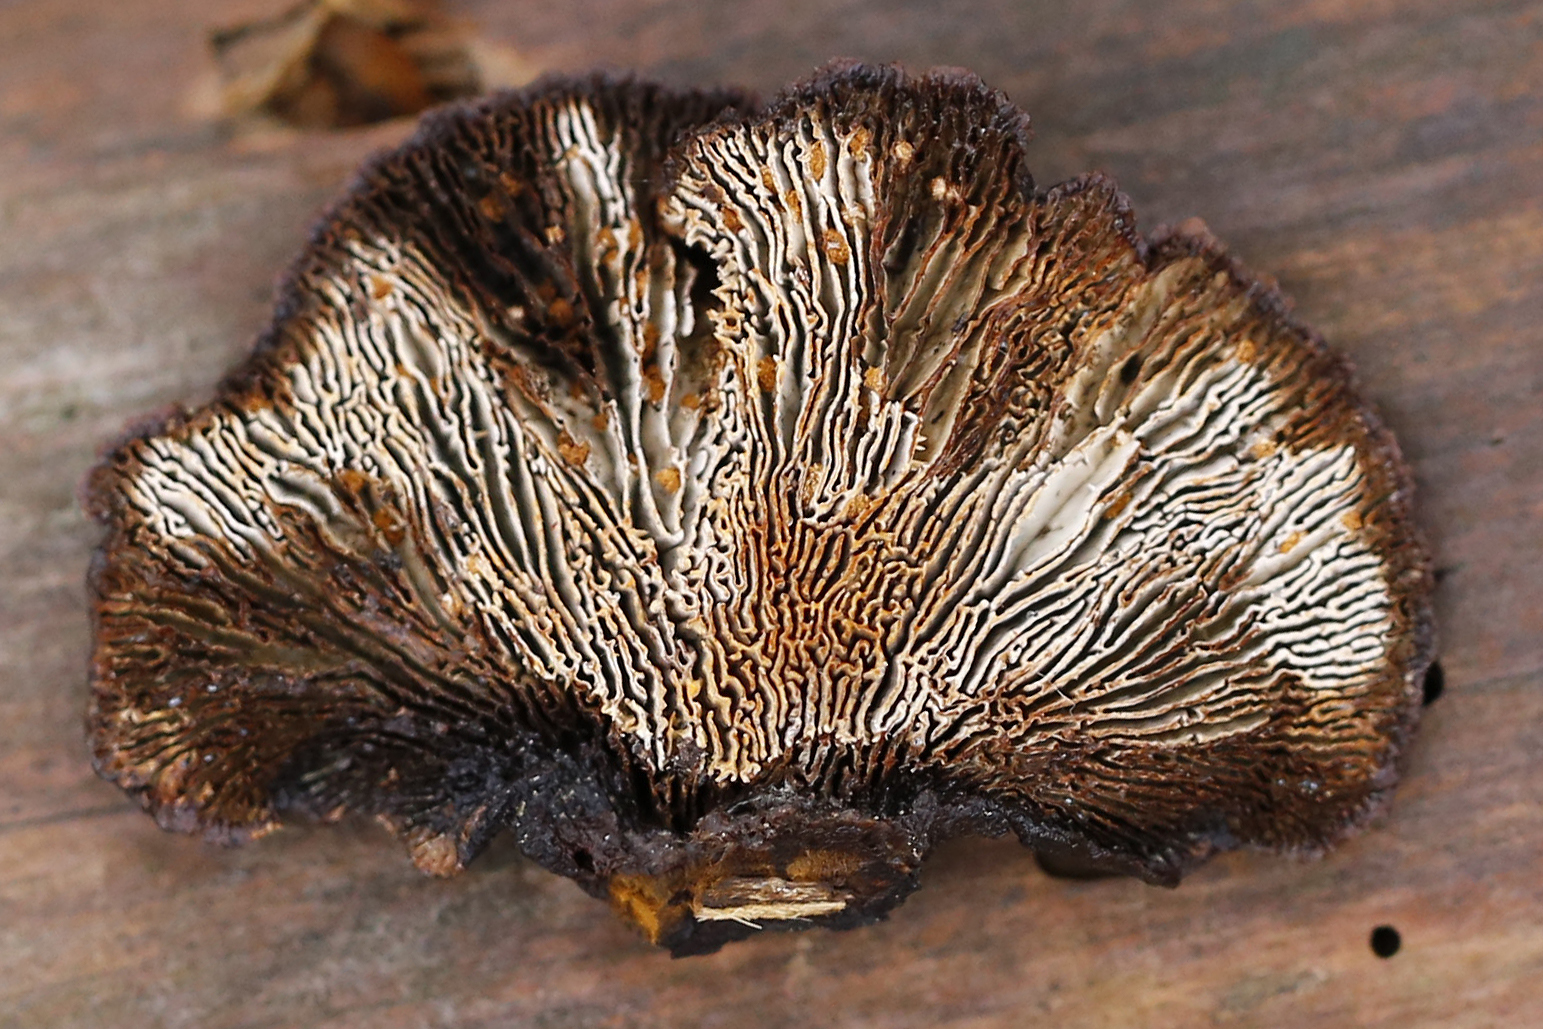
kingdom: Fungi
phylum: Basidiomycota
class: Agaricomycetes
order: Gloeophyllales
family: Gloeophyllaceae
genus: Gloeophyllum
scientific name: Gloeophyllum sepiarium
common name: Conifer mazegill
